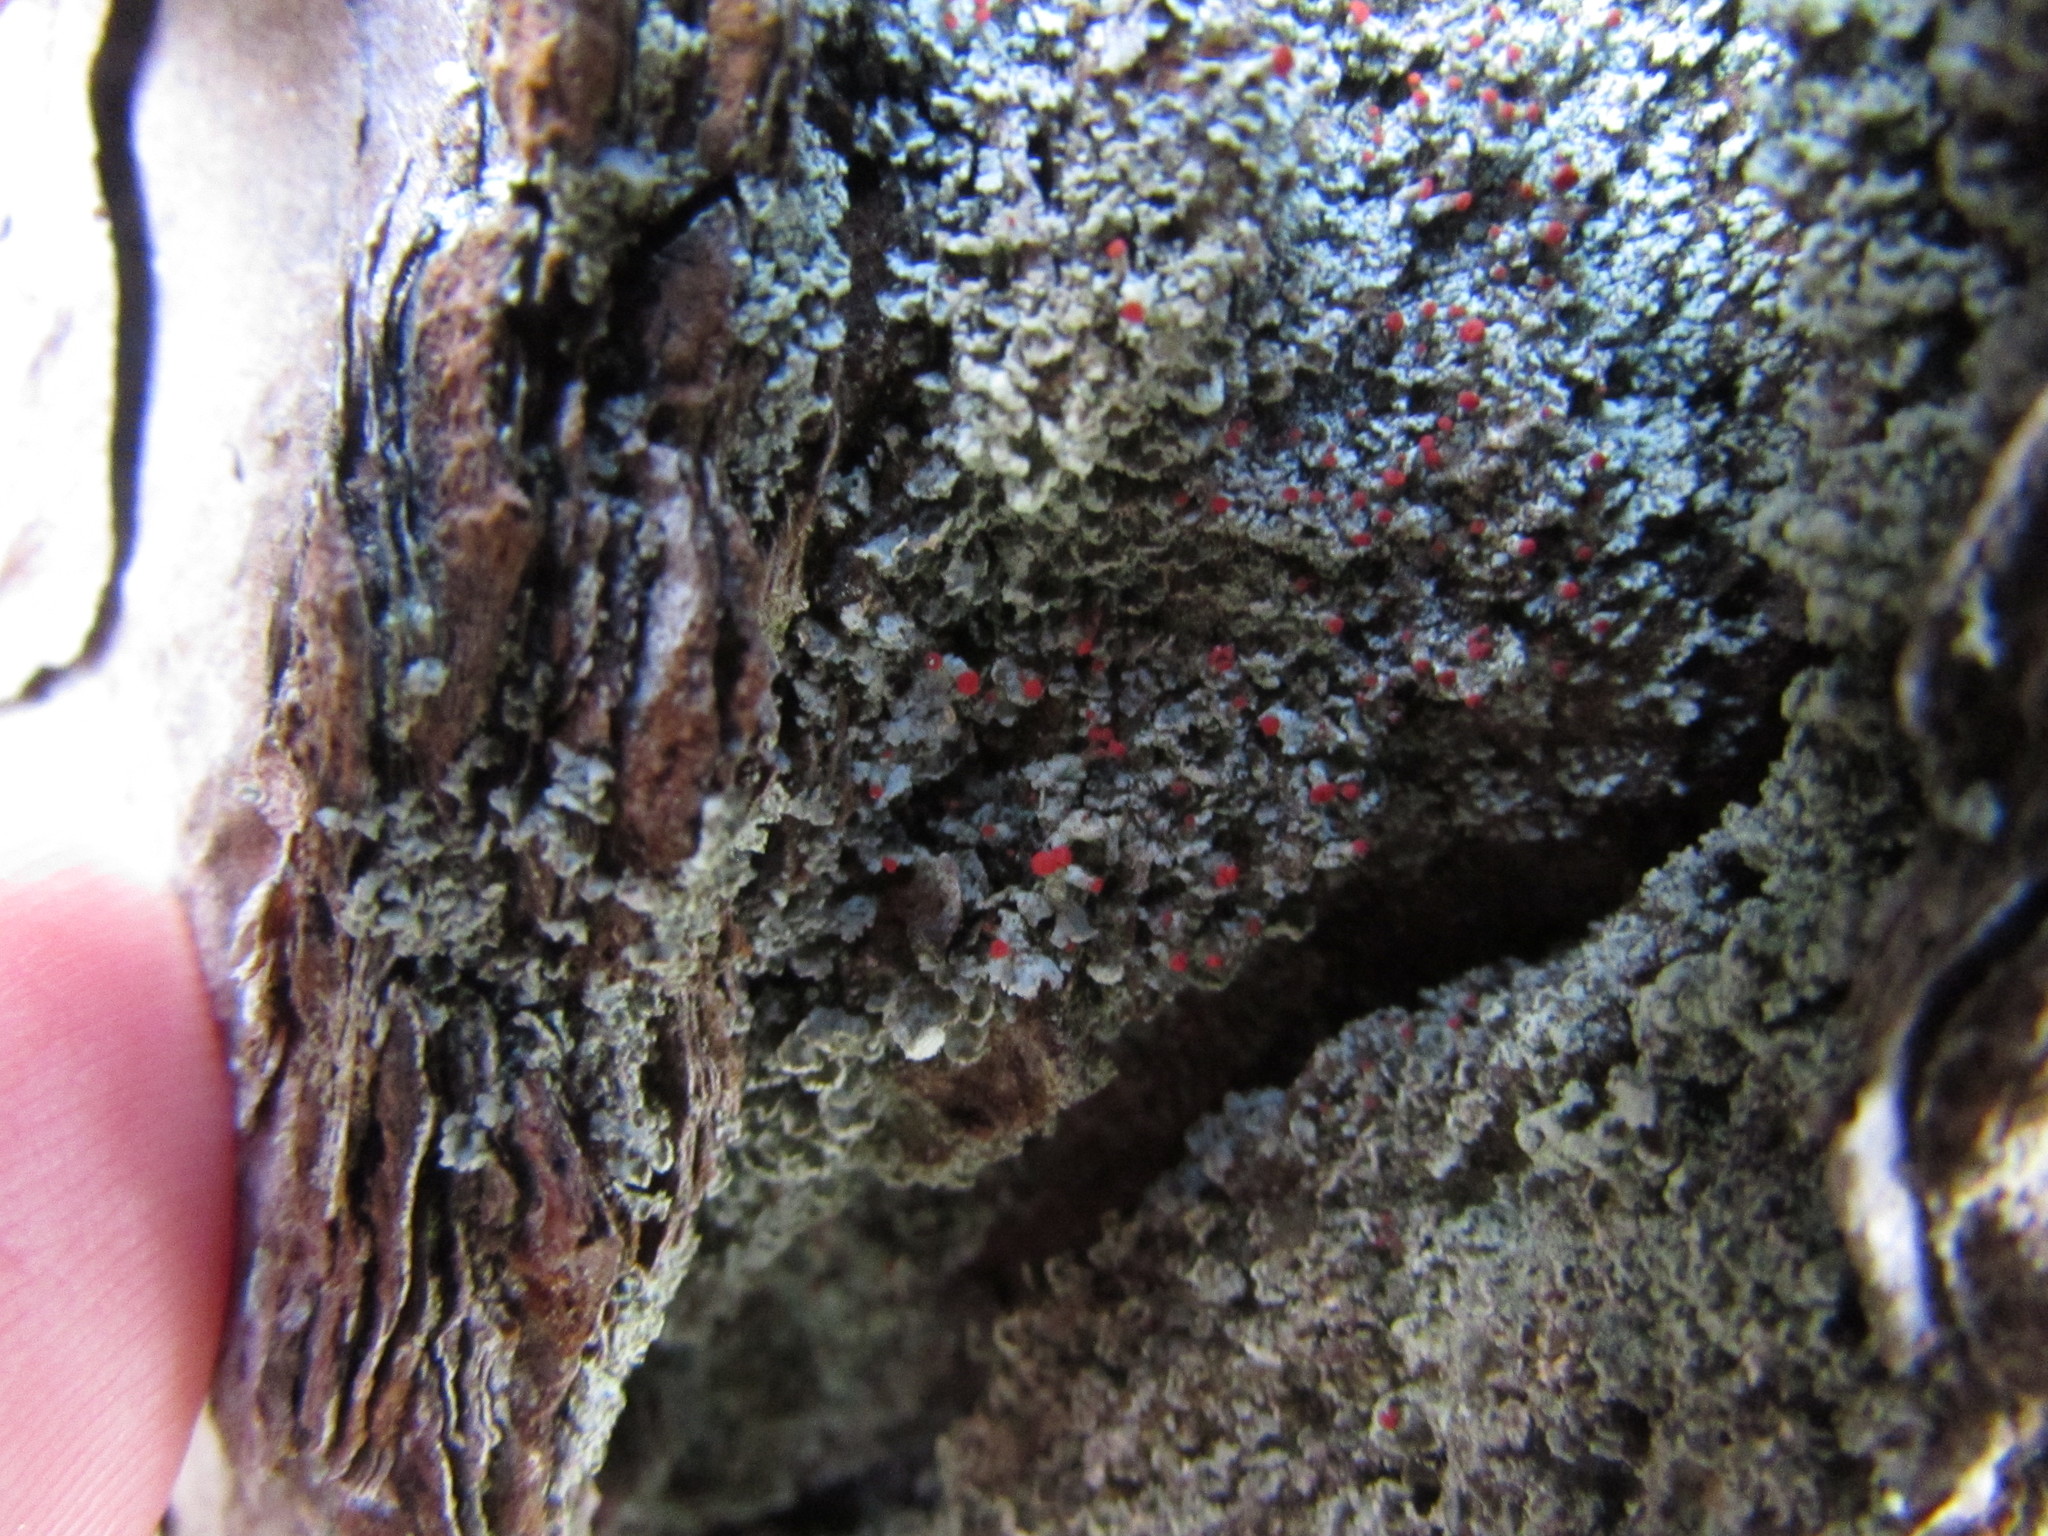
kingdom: Fungi
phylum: Ascomycota
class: Lecanoromycetes
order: Lecanorales
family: Cladoniaceae
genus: Cladonia
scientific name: Cladonia cristatella
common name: British soldier lichen
